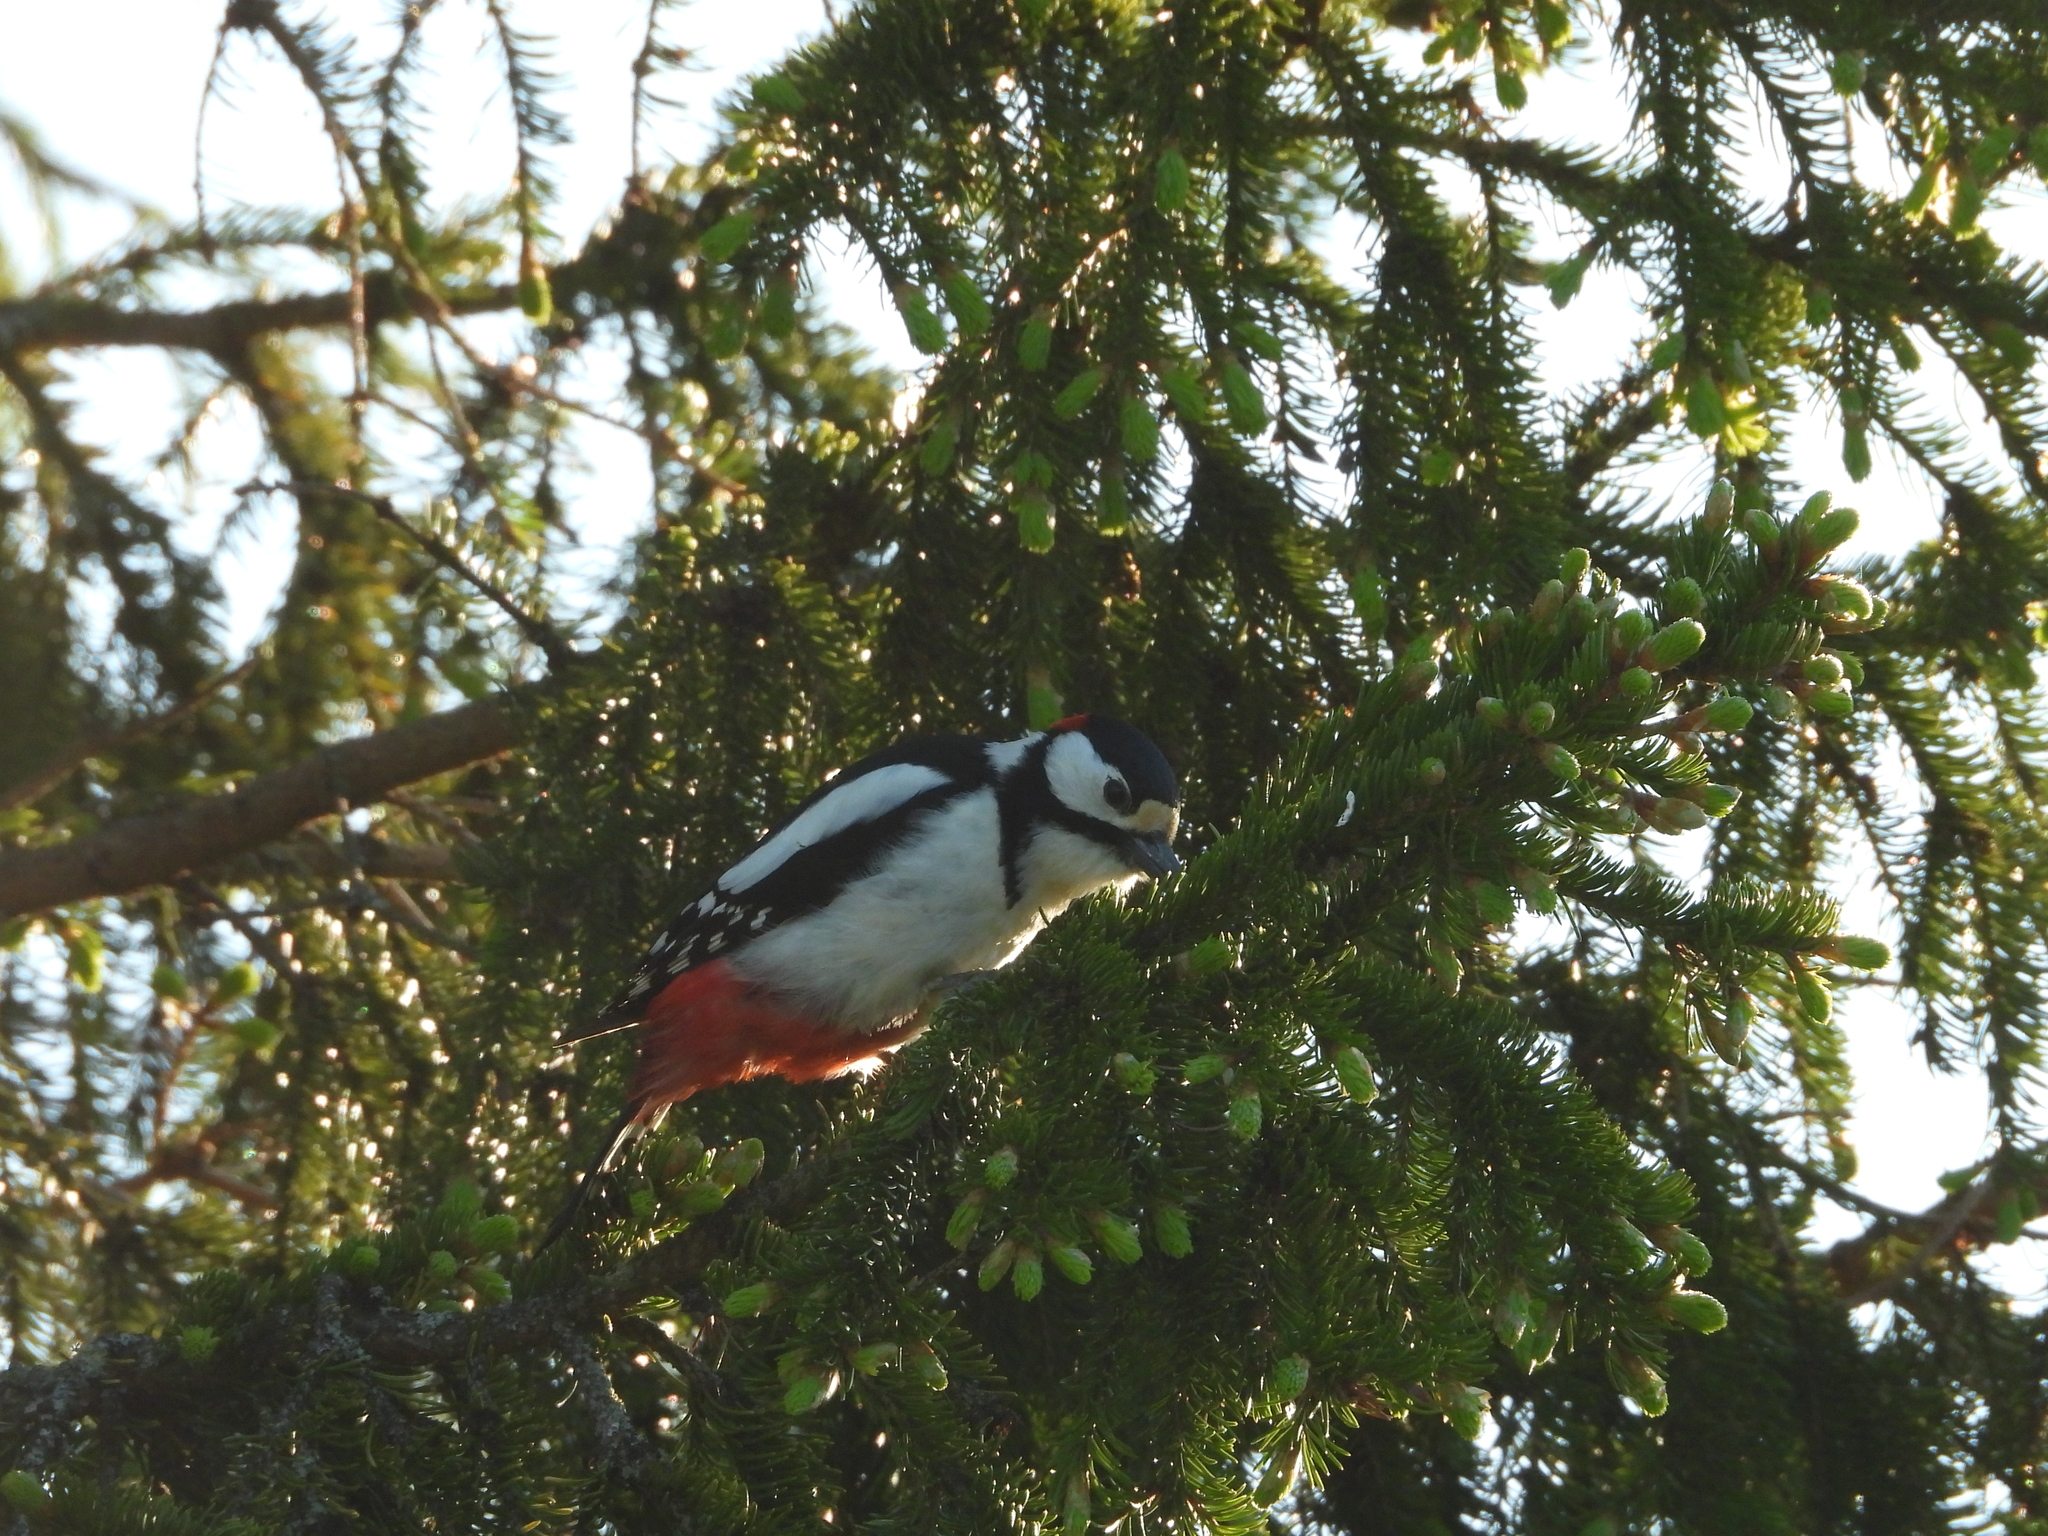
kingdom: Animalia
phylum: Chordata
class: Aves
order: Piciformes
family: Picidae
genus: Dendrocopos
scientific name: Dendrocopos major
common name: Great spotted woodpecker
